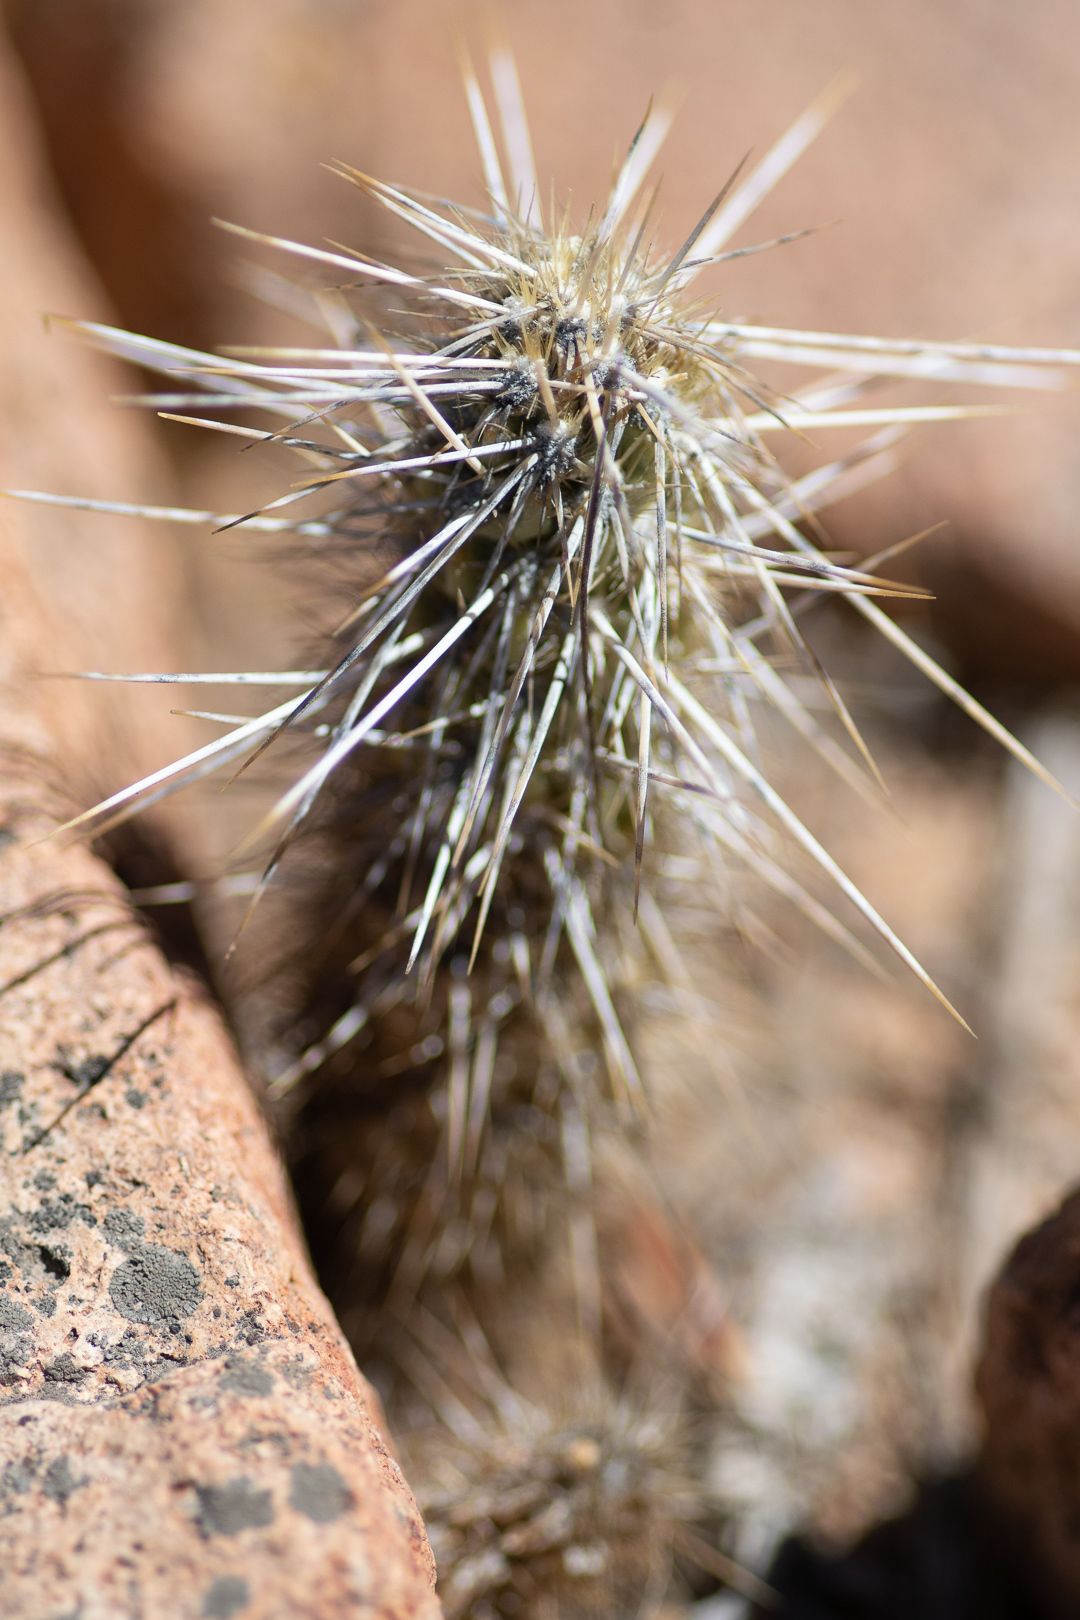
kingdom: Plantae
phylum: Tracheophyta
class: Magnoliopsida
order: Caryophyllales
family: Cactaceae
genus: Miqueliopuntia
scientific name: Miqueliopuntia miquelii
